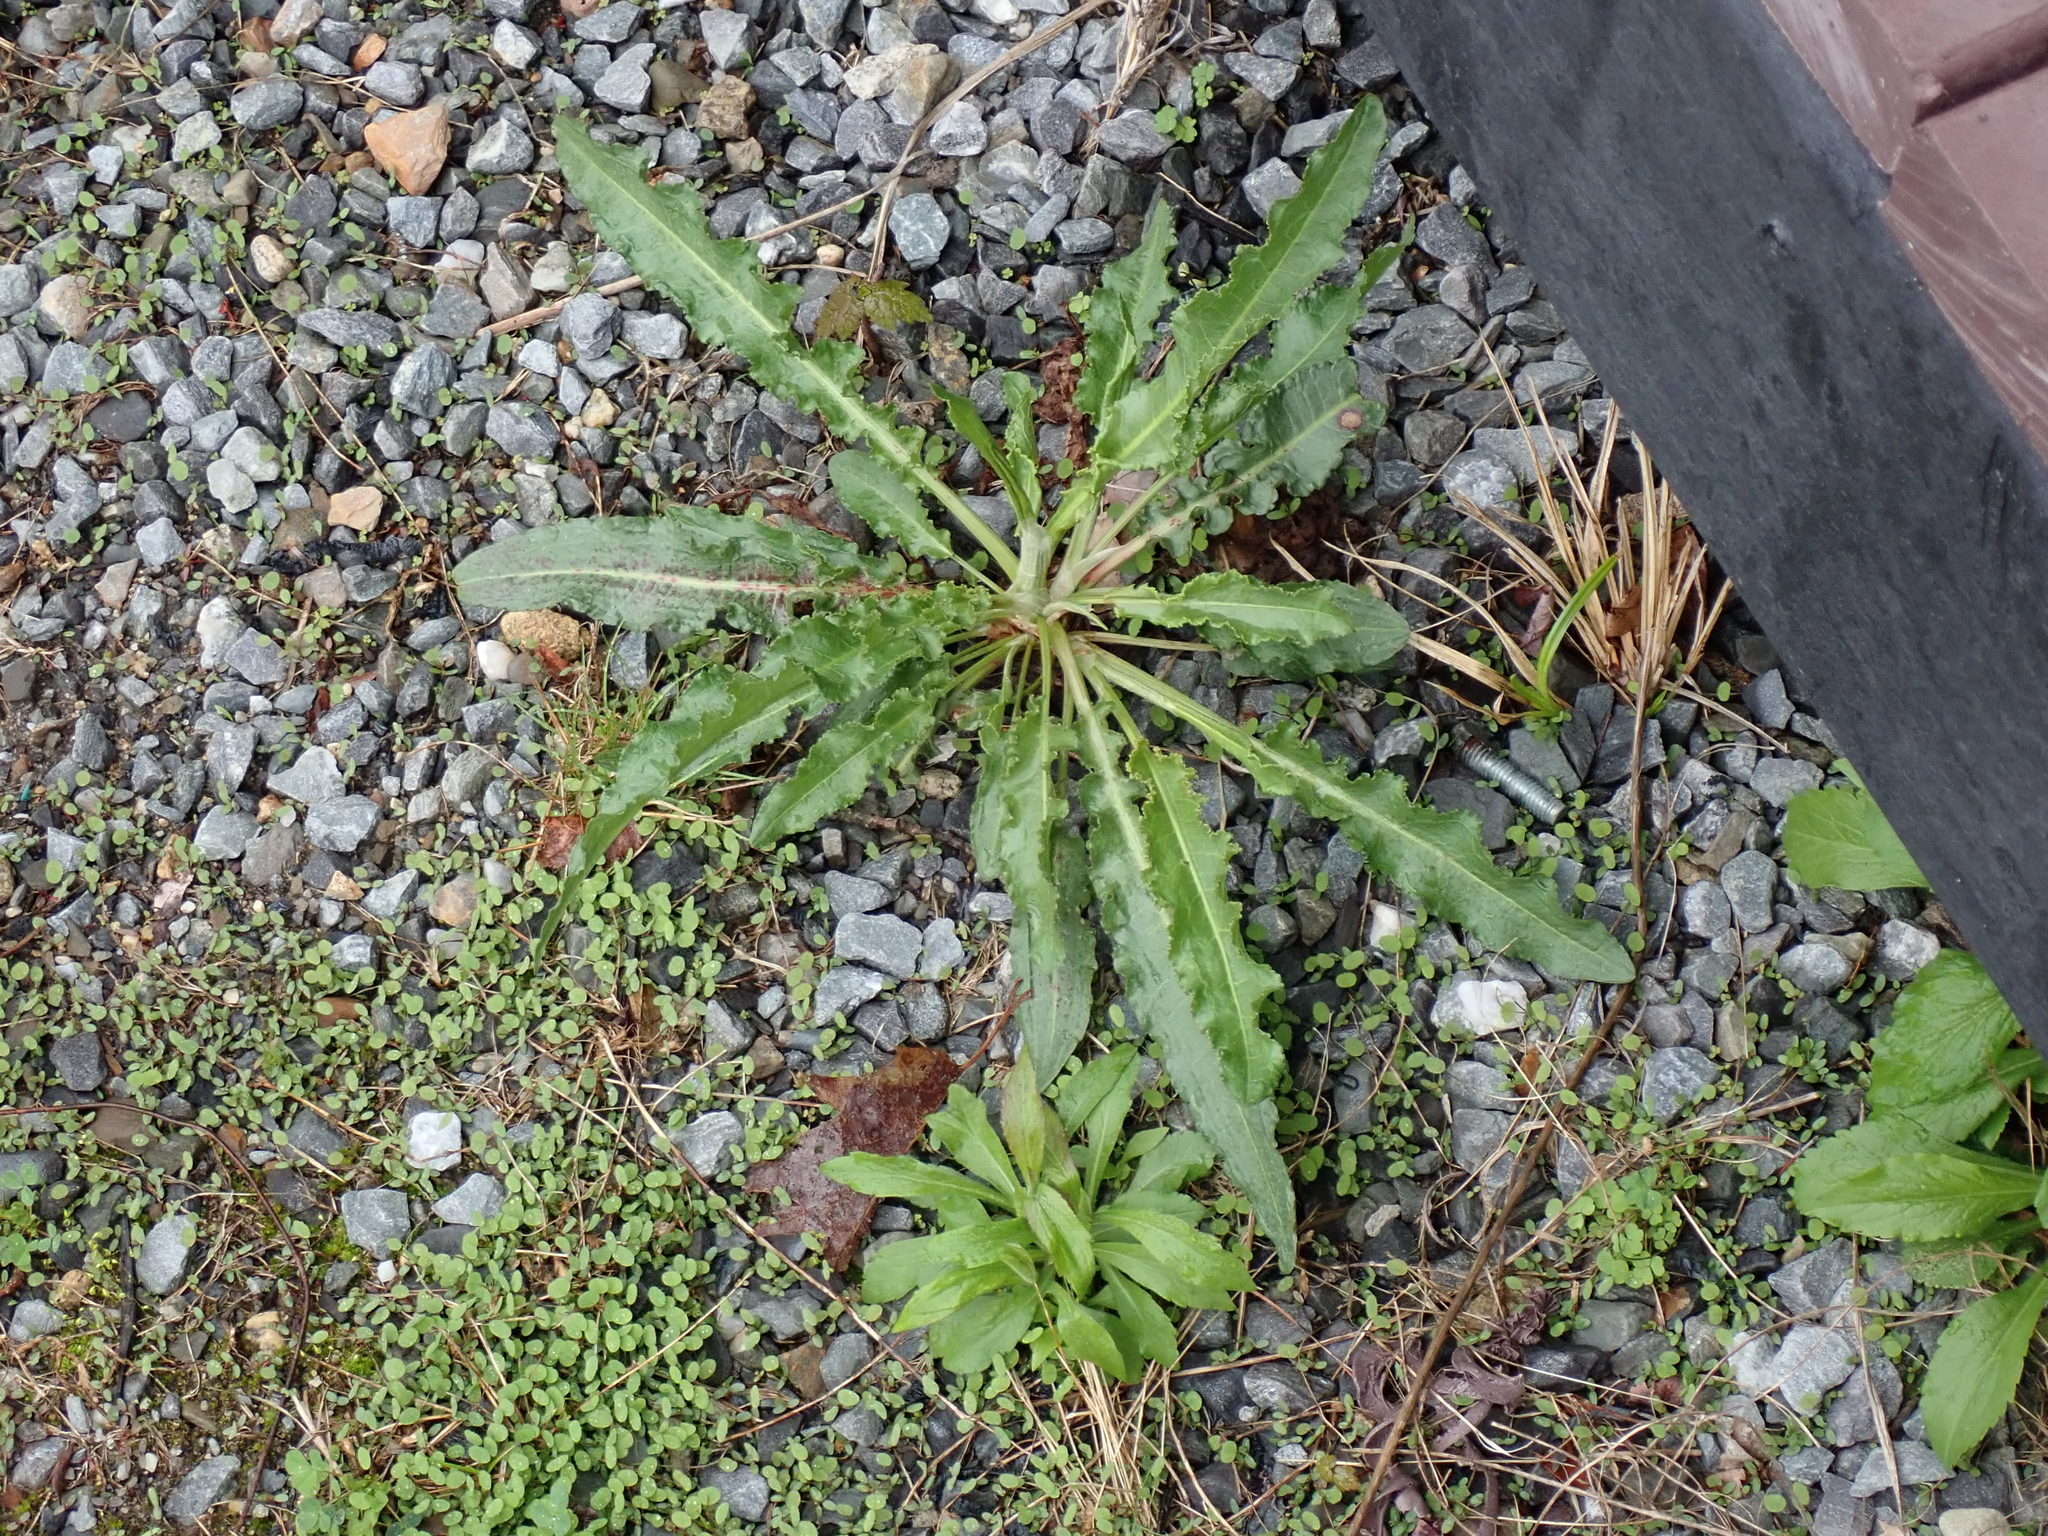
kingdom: Plantae
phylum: Tracheophyta
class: Magnoliopsida
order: Asterales
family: Asteraceae
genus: Taraxacum
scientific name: Taraxacum officinale
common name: Common dandelion
